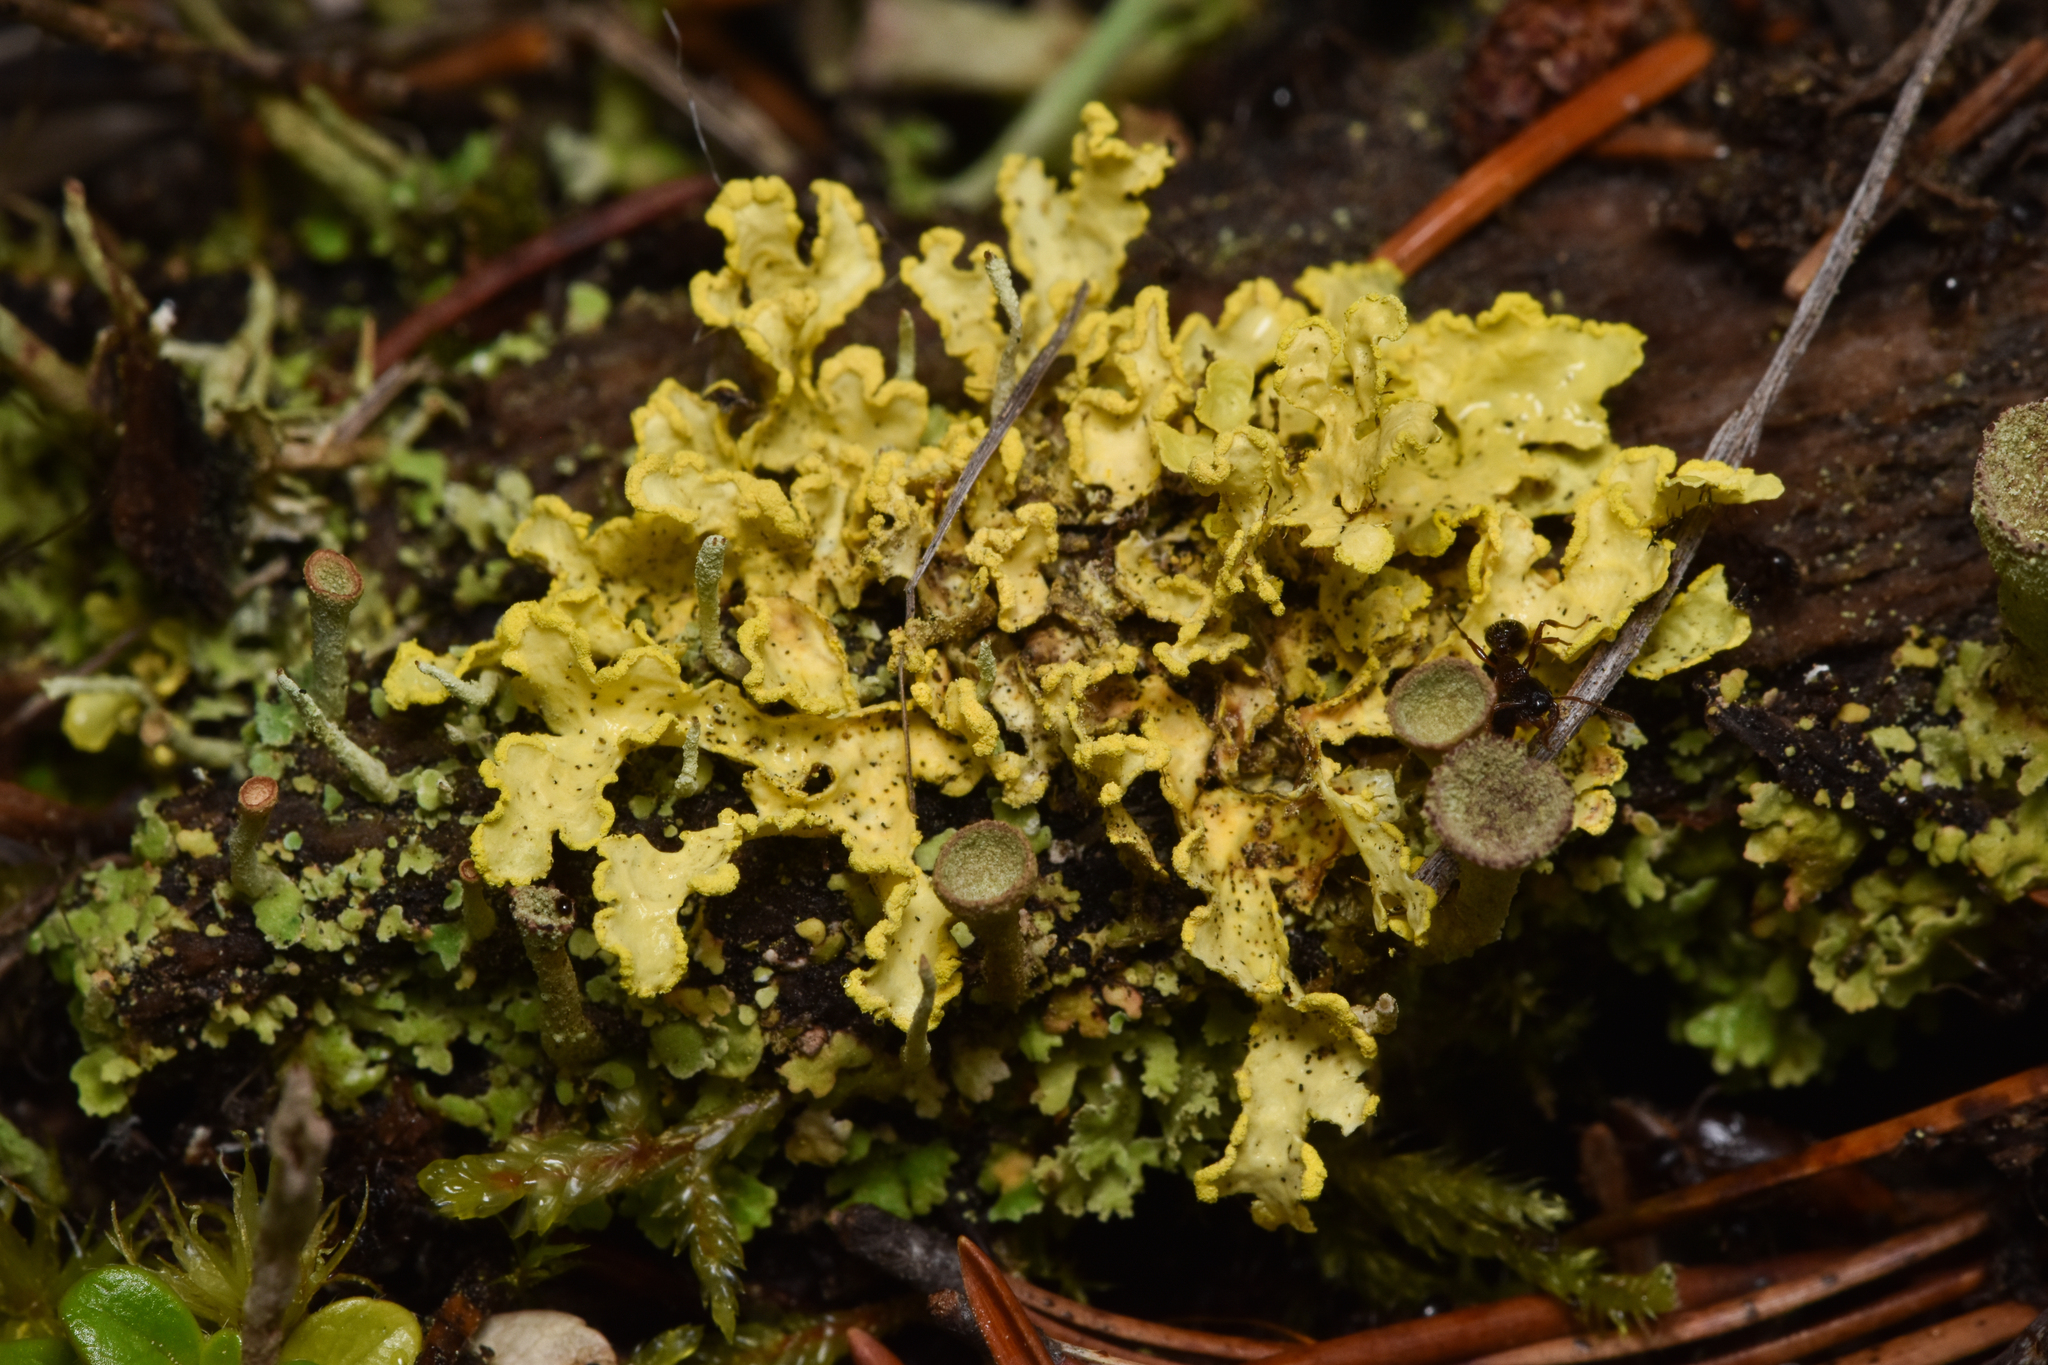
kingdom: Fungi
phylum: Ascomycota
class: Lecanoromycetes
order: Lecanorales
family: Parmeliaceae
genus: Vulpicida
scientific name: Vulpicida pinastri
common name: Powdered sunshine lichen
